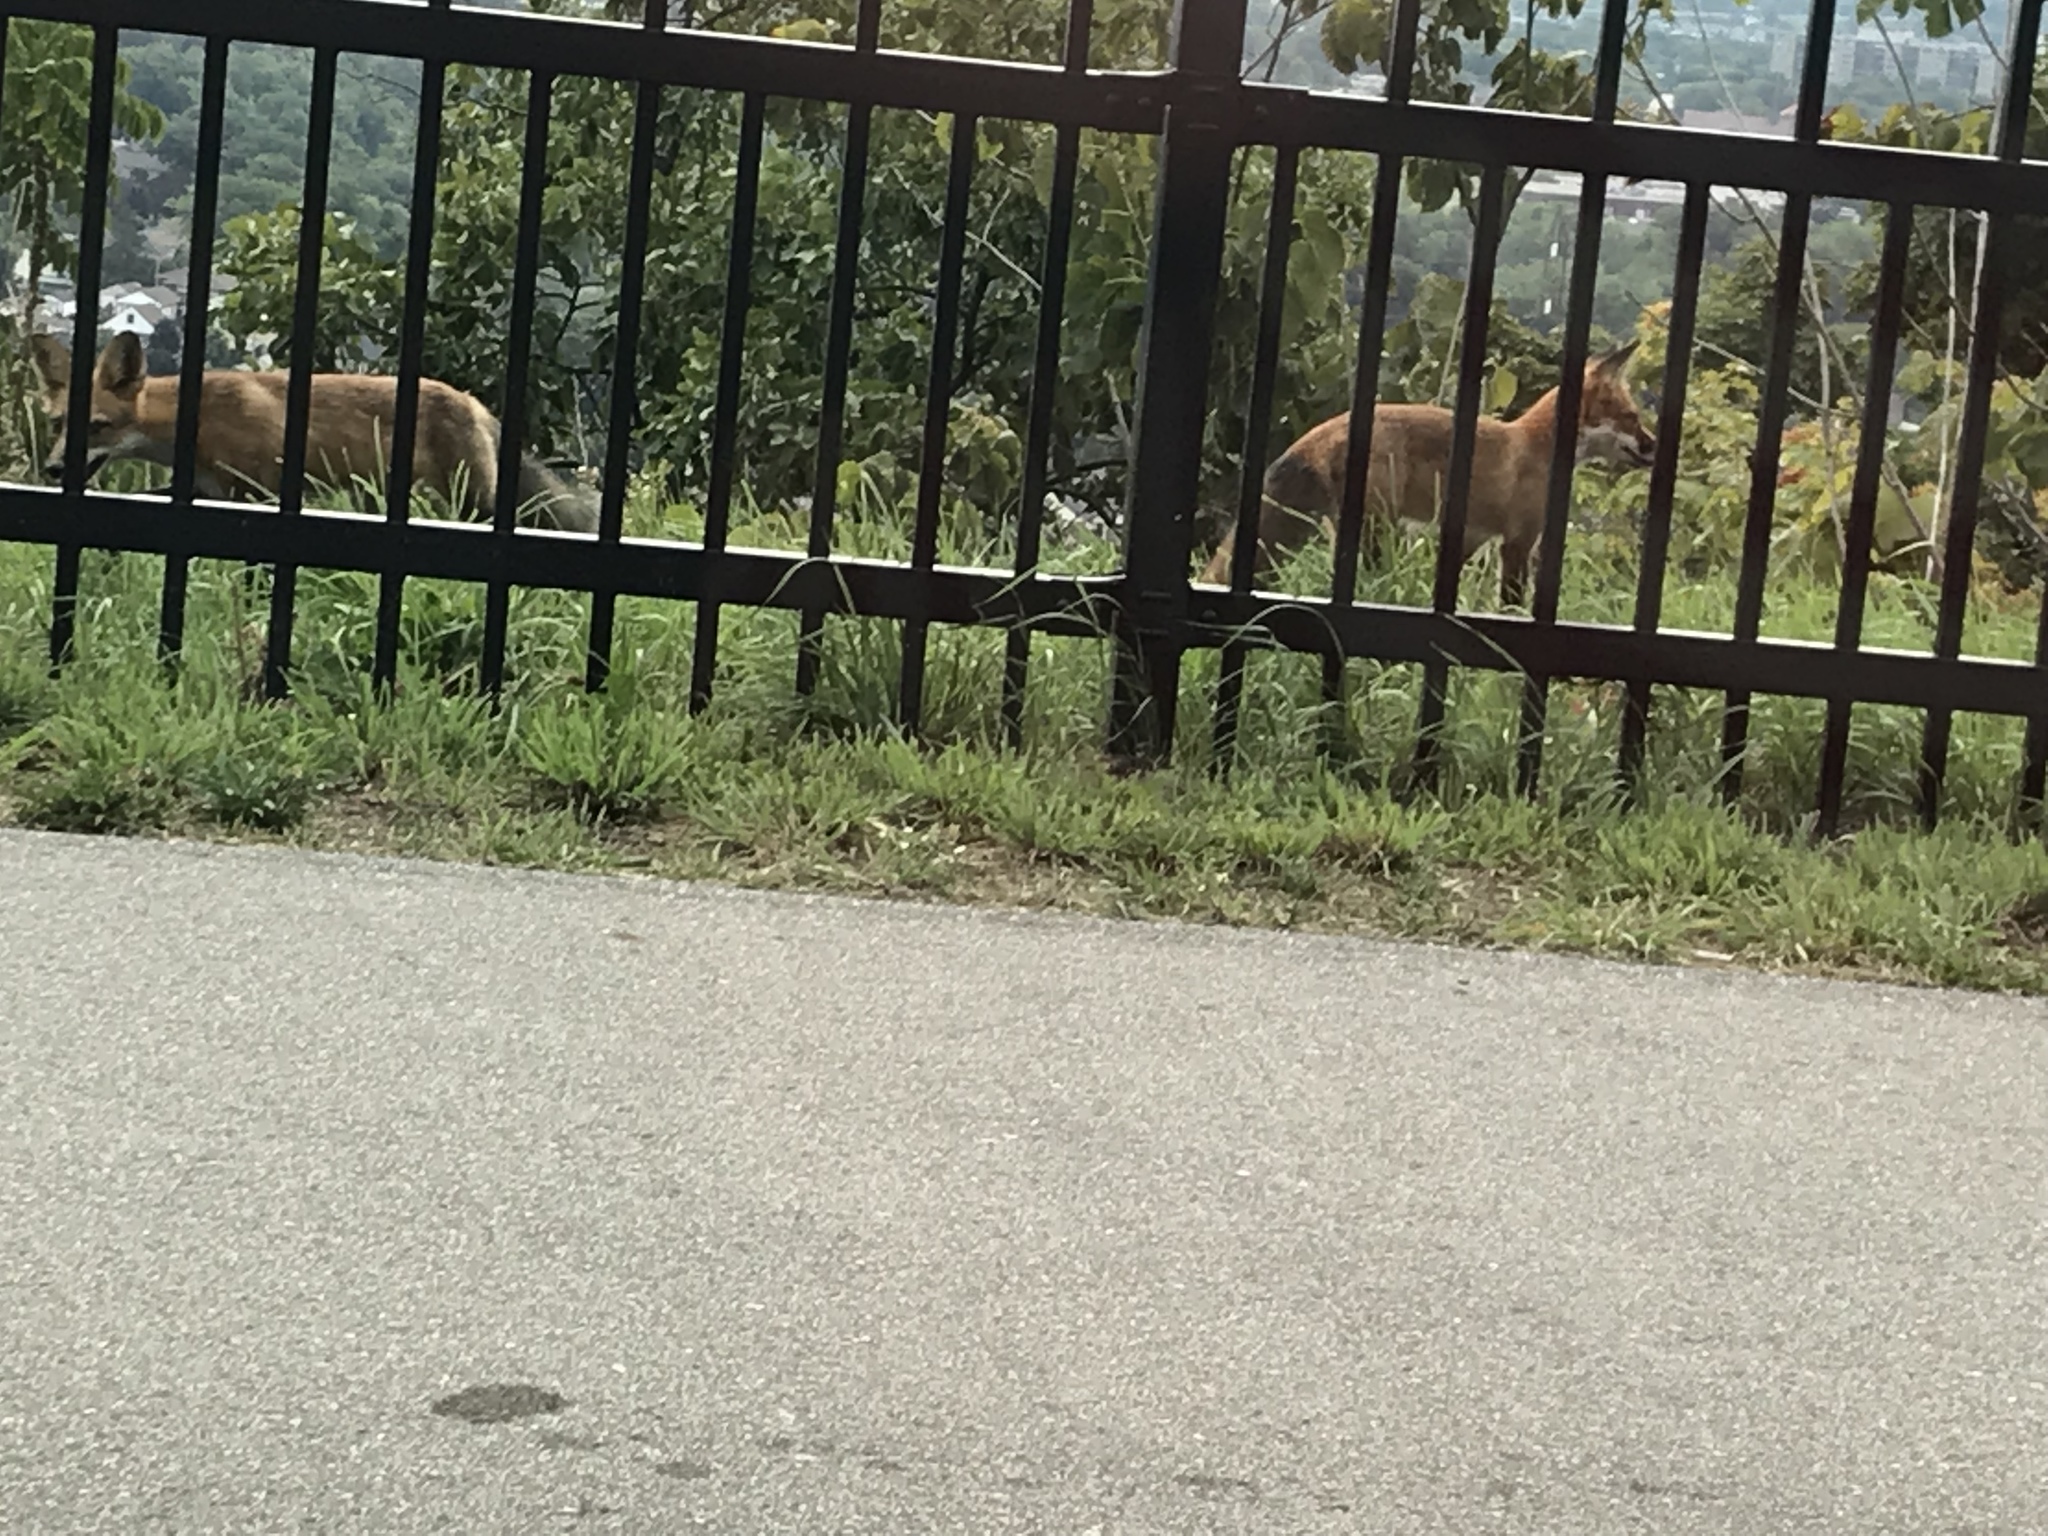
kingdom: Animalia
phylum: Chordata
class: Mammalia
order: Carnivora
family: Canidae
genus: Vulpes
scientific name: Vulpes vulpes
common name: Red fox
